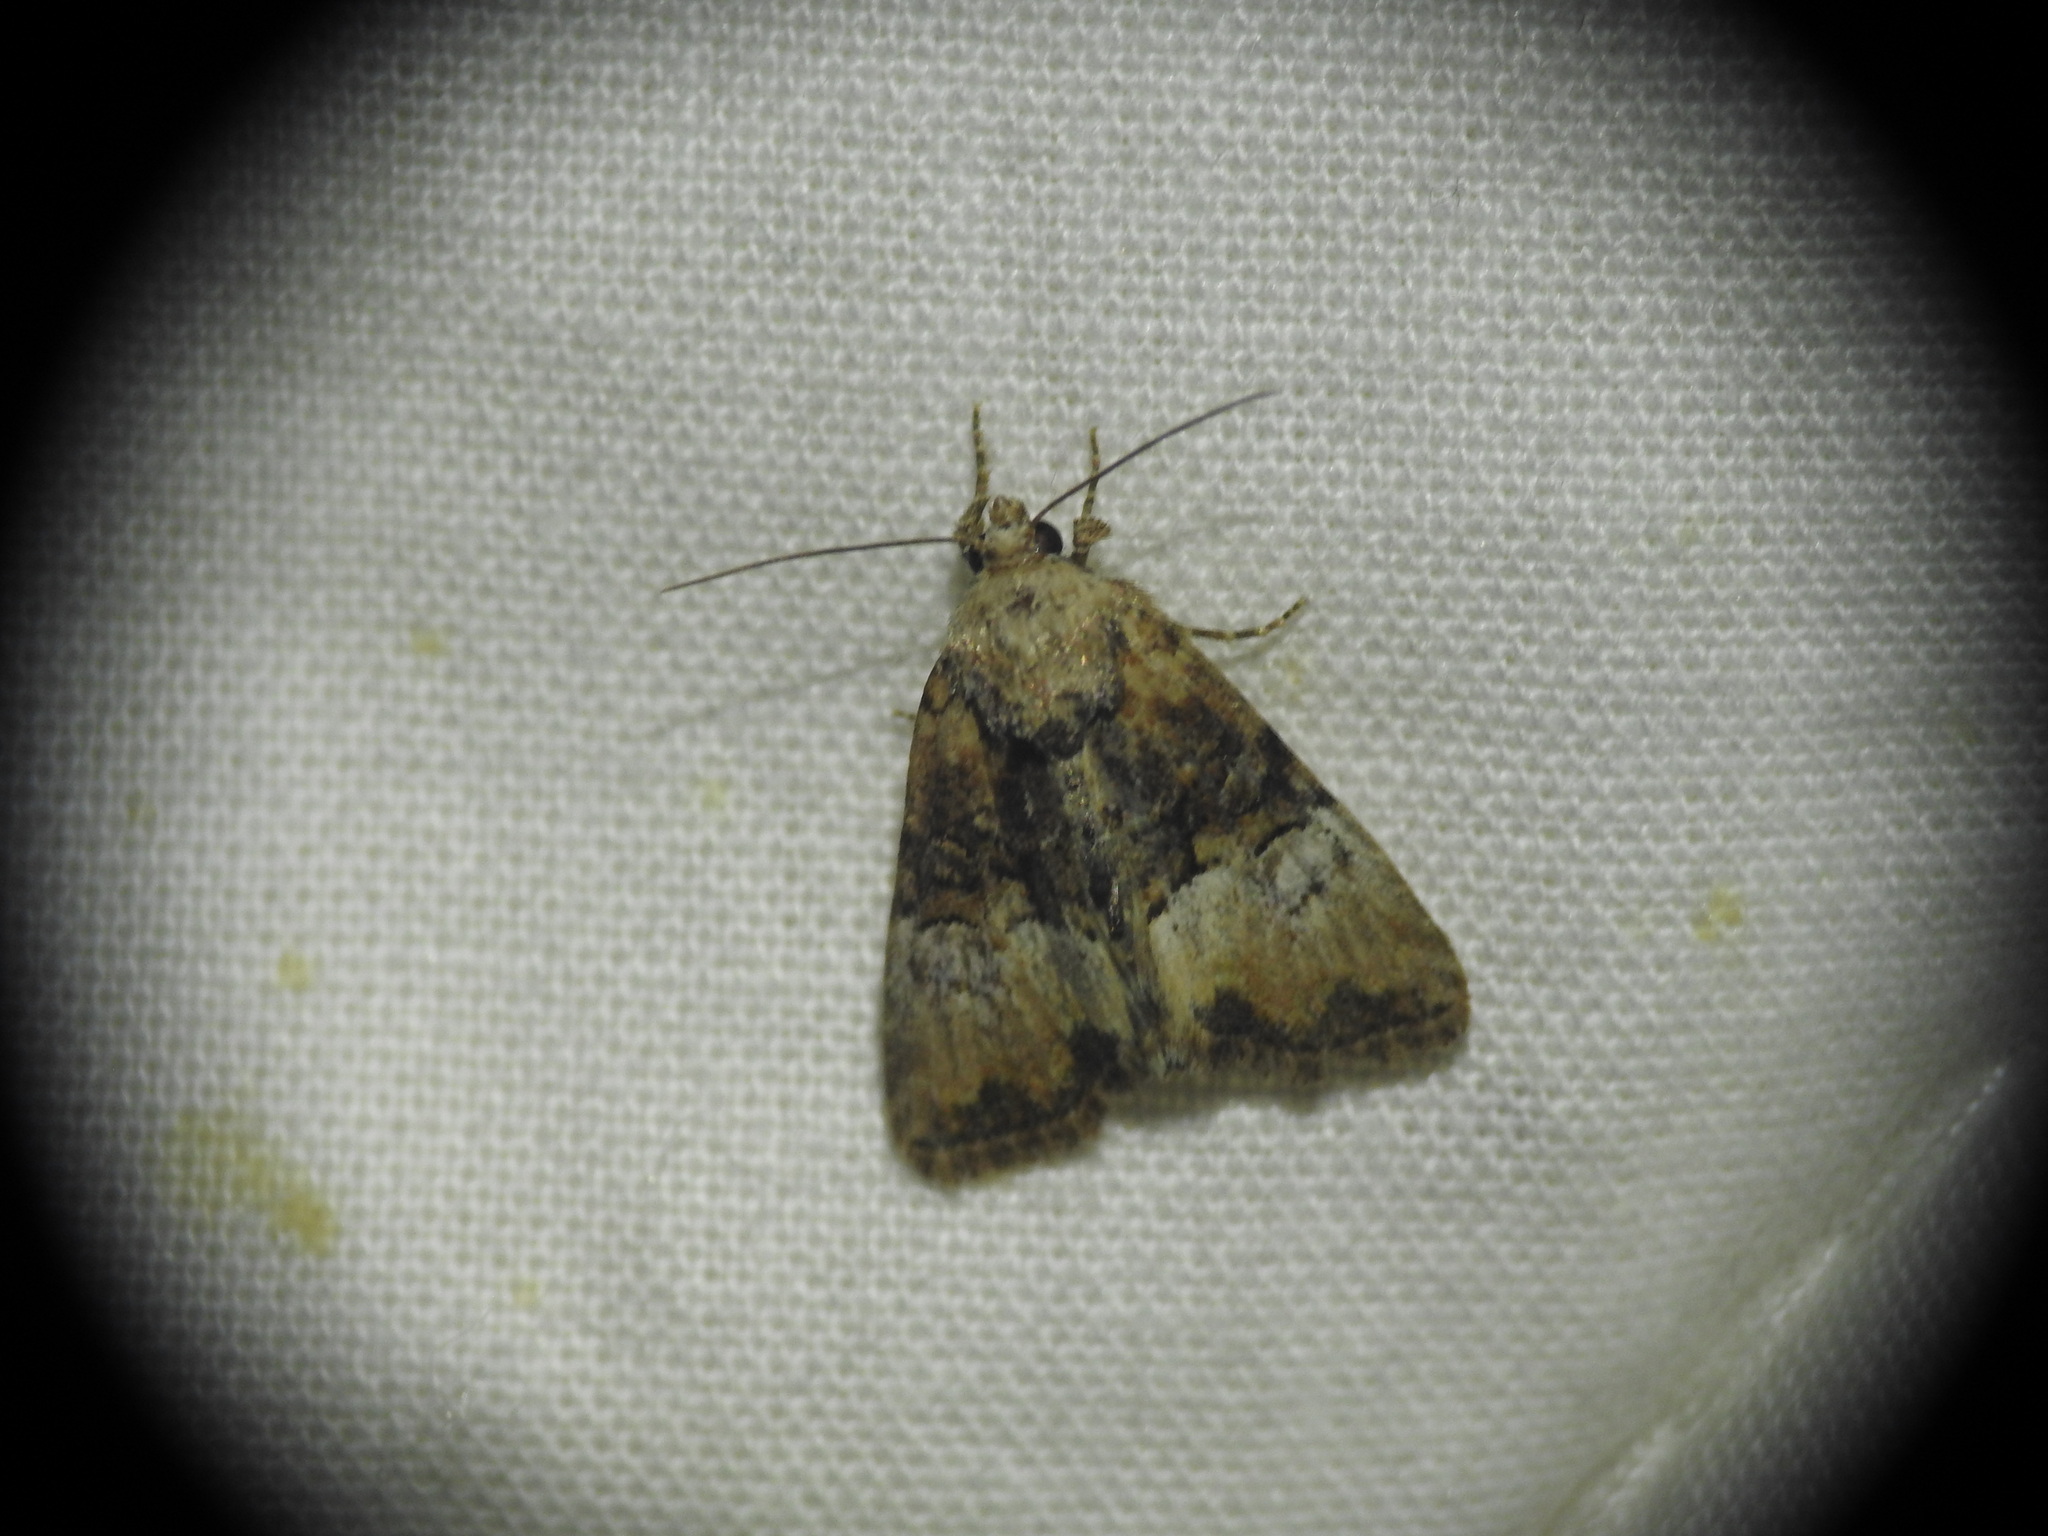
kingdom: Animalia
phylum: Arthropoda
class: Insecta
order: Lepidoptera
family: Noctuidae
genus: Mesoligia
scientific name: Mesoligia furuncula
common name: Cloaked minor
